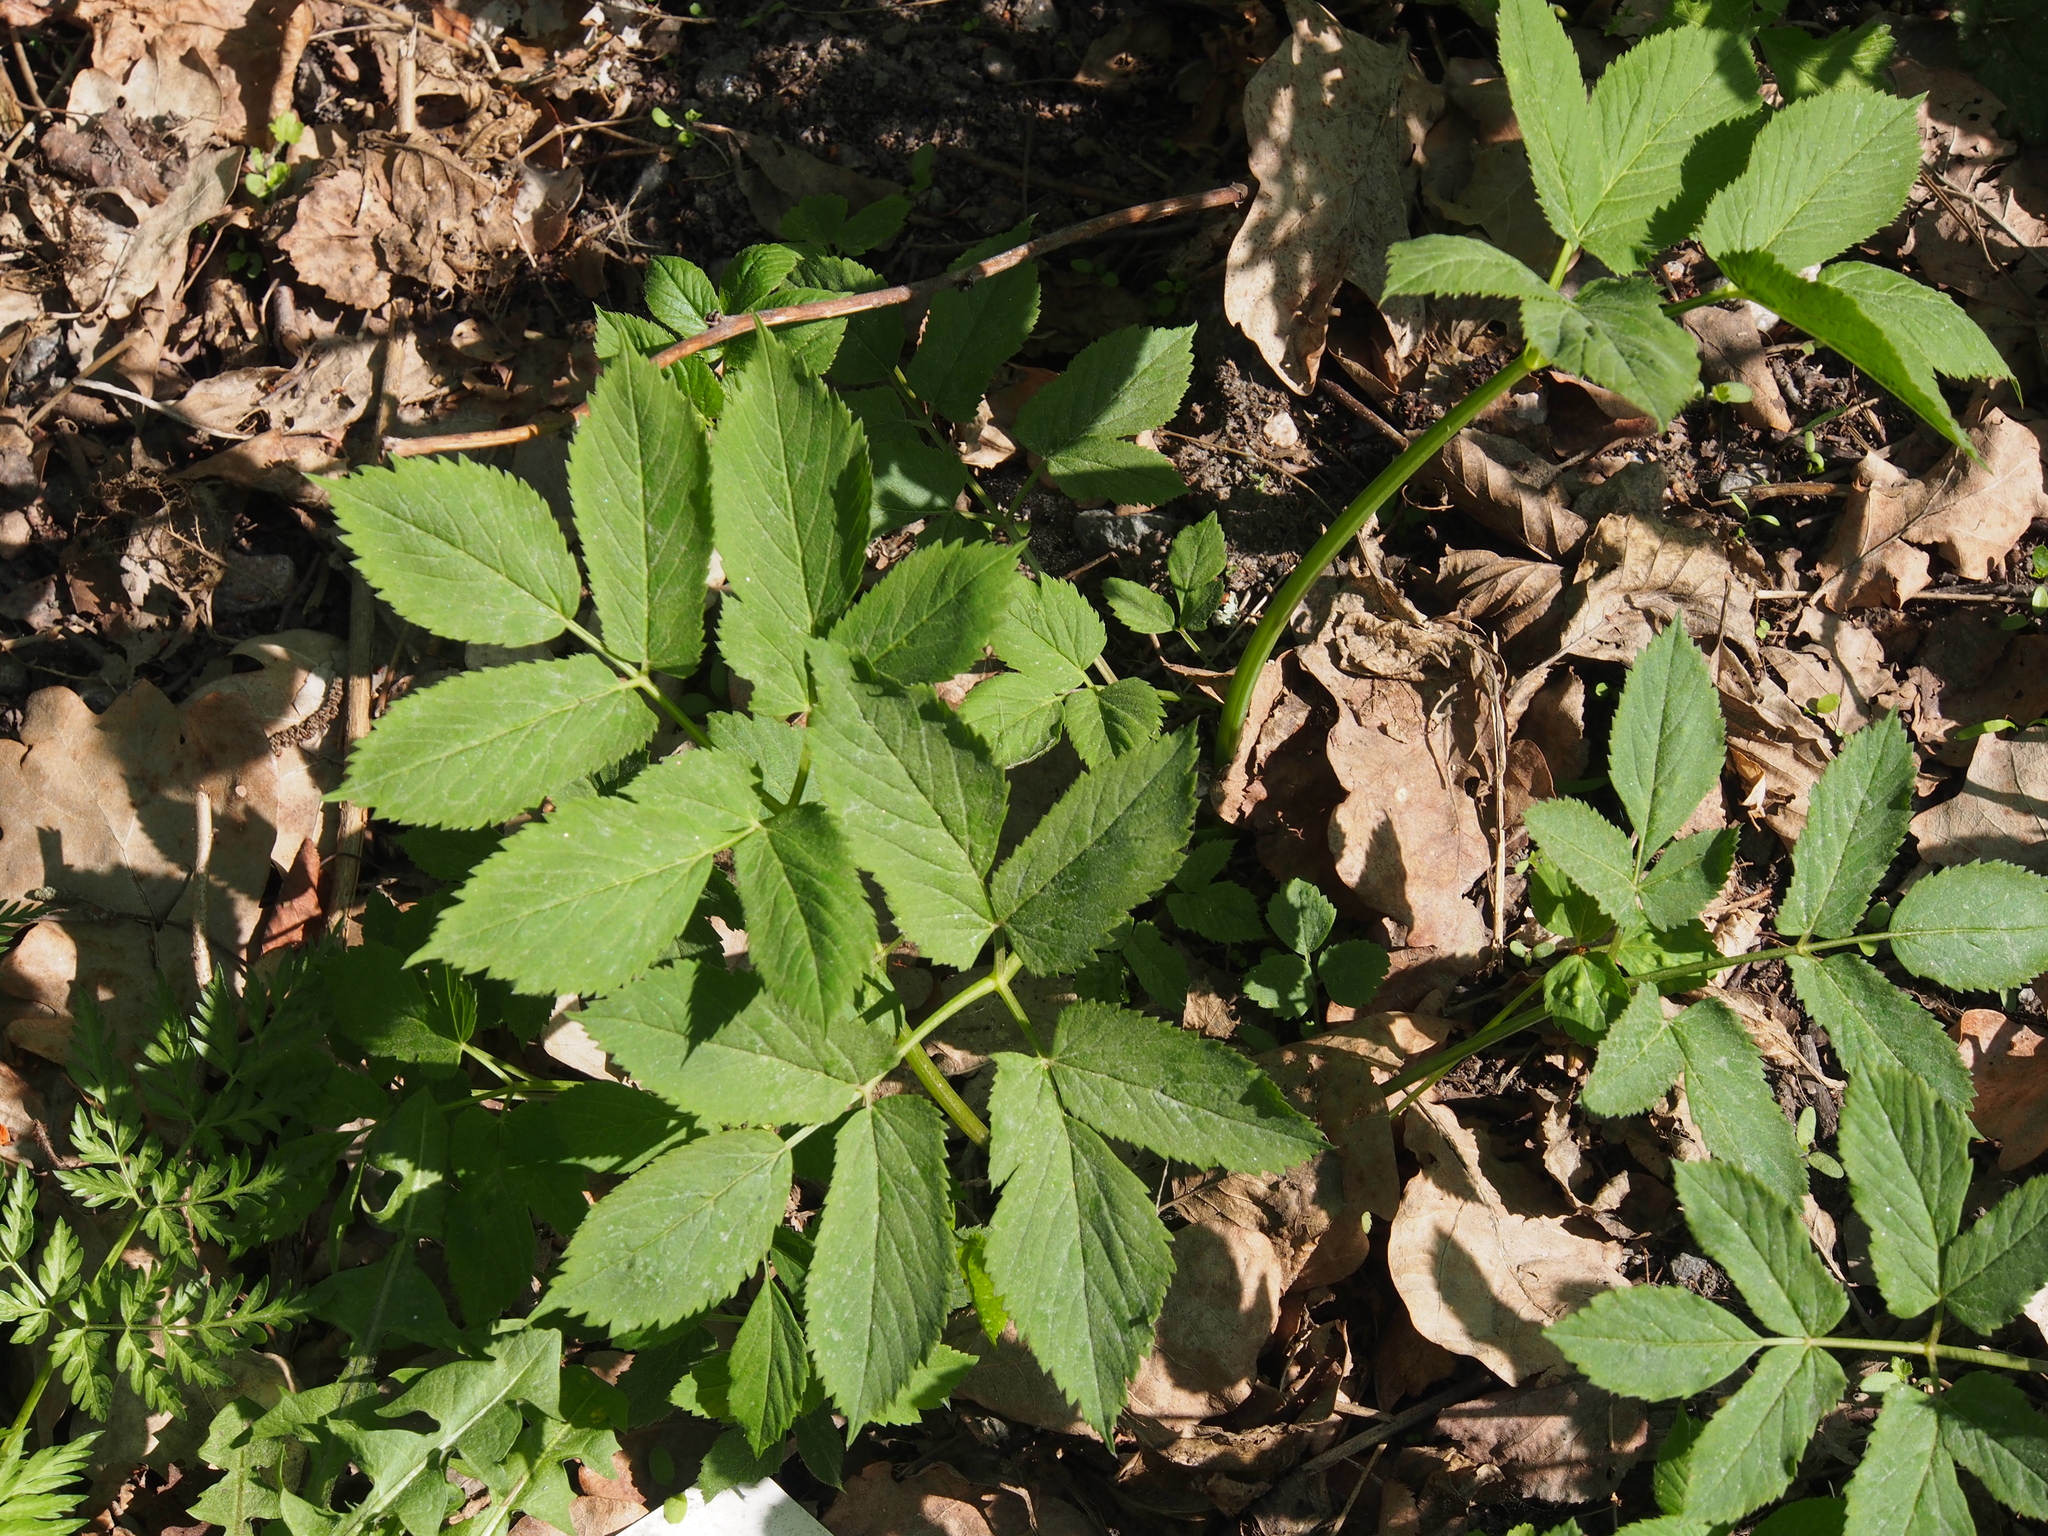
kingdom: Plantae
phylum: Tracheophyta
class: Magnoliopsida
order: Apiales
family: Apiaceae
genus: Aegopodium
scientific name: Aegopodium podagraria
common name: Ground-elder
